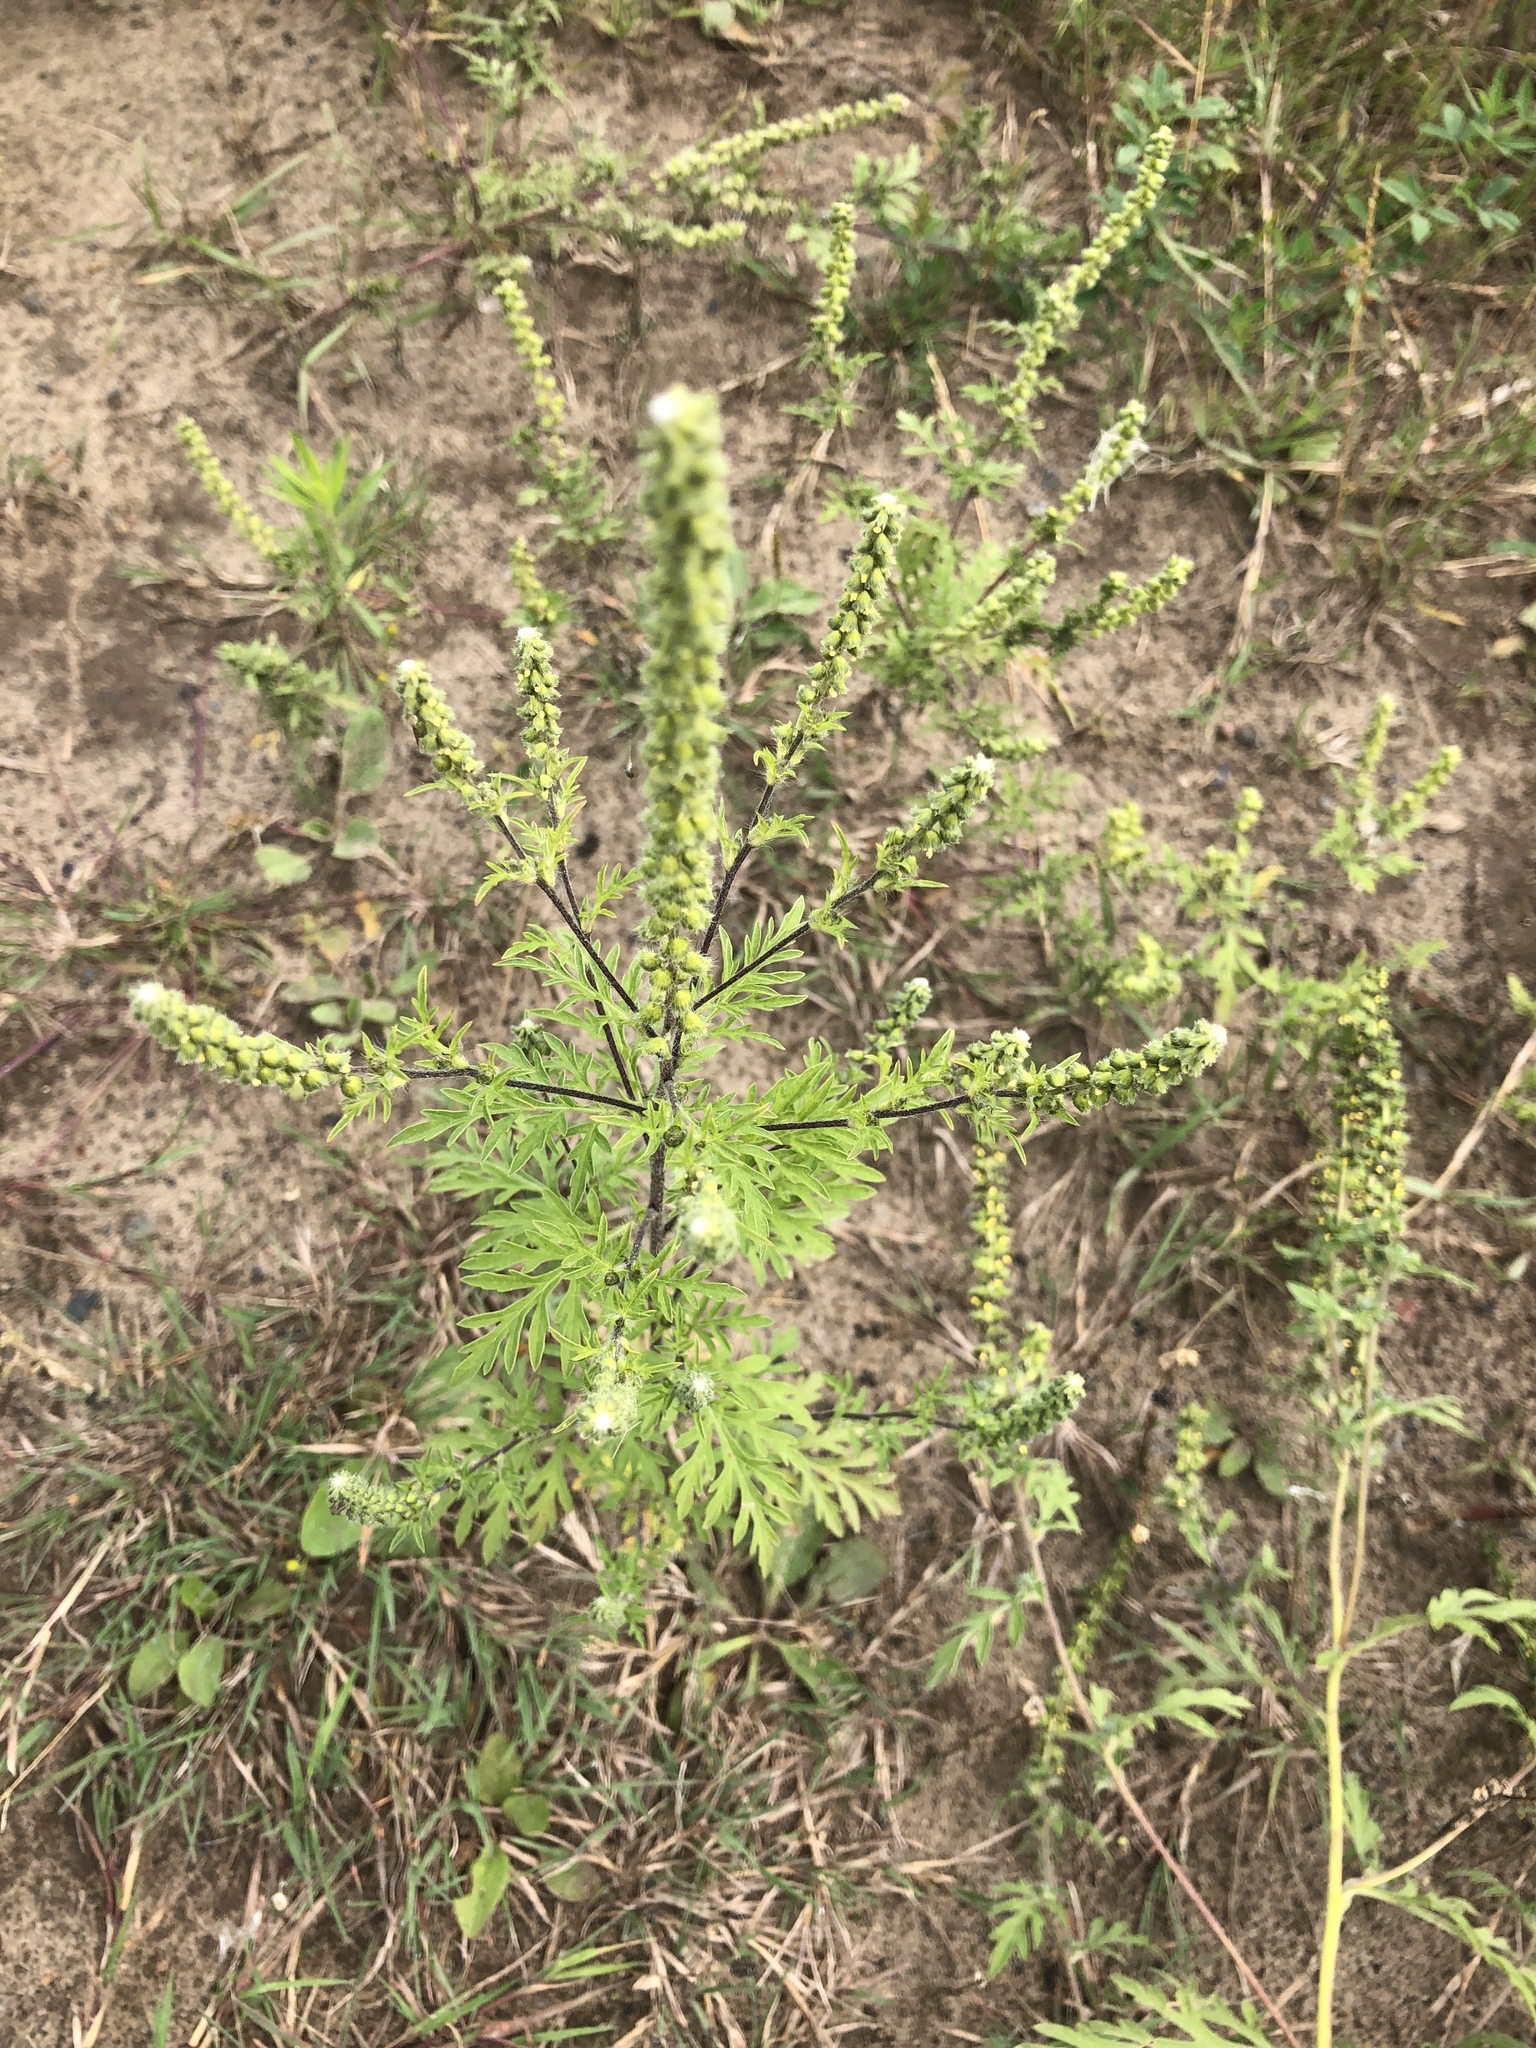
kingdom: Plantae
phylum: Tracheophyta
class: Magnoliopsida
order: Asterales
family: Asteraceae
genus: Ambrosia
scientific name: Ambrosia artemisiifolia
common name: Annual ragweed
